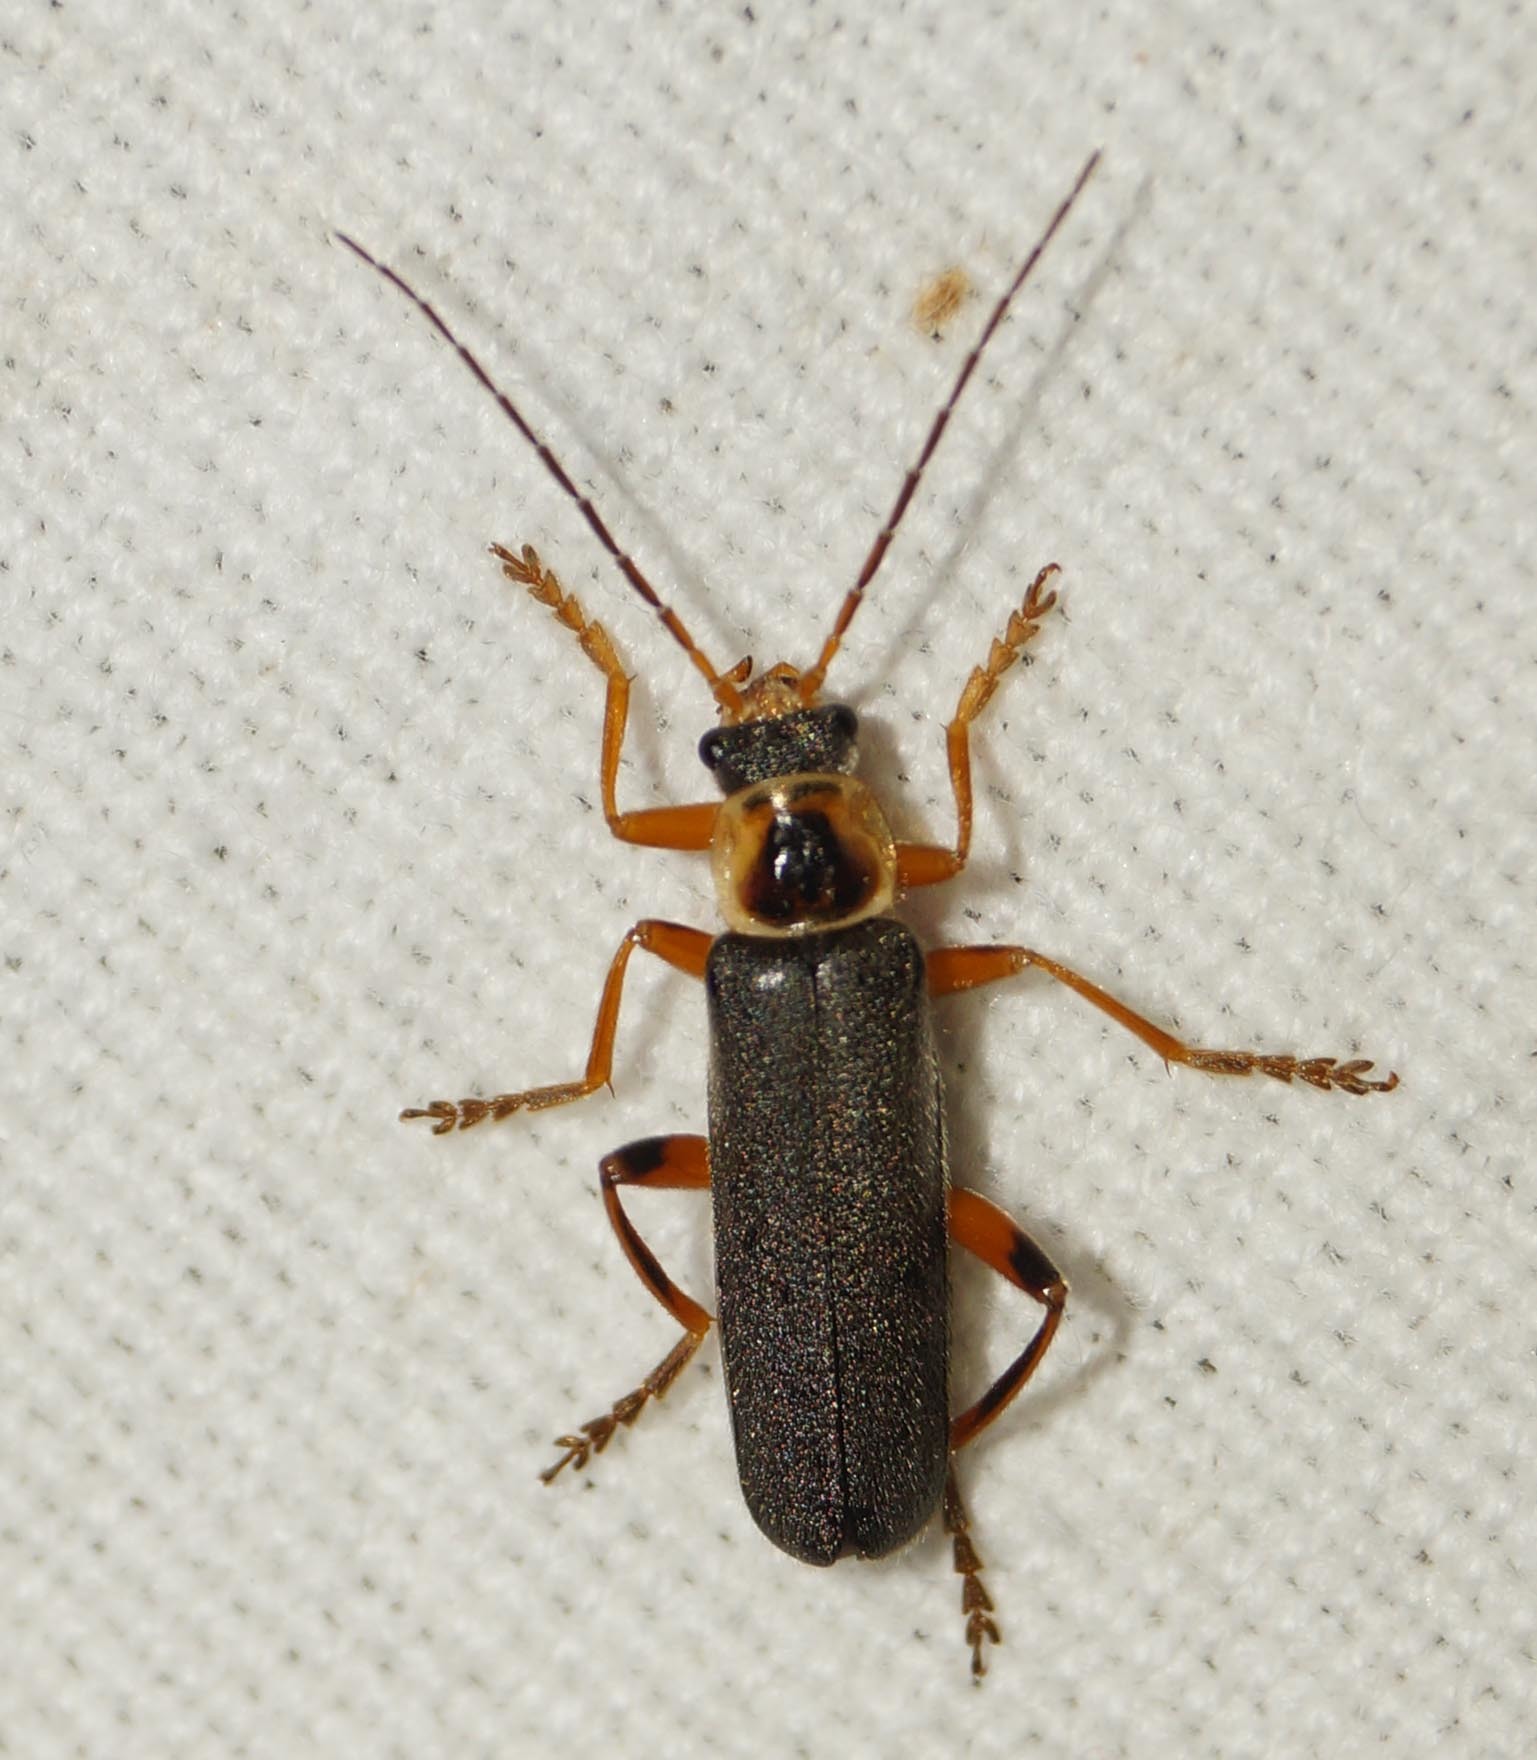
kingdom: Animalia
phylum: Arthropoda
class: Insecta
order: Coleoptera
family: Cantharidae
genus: Cantharis
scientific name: Cantharis nigricans
